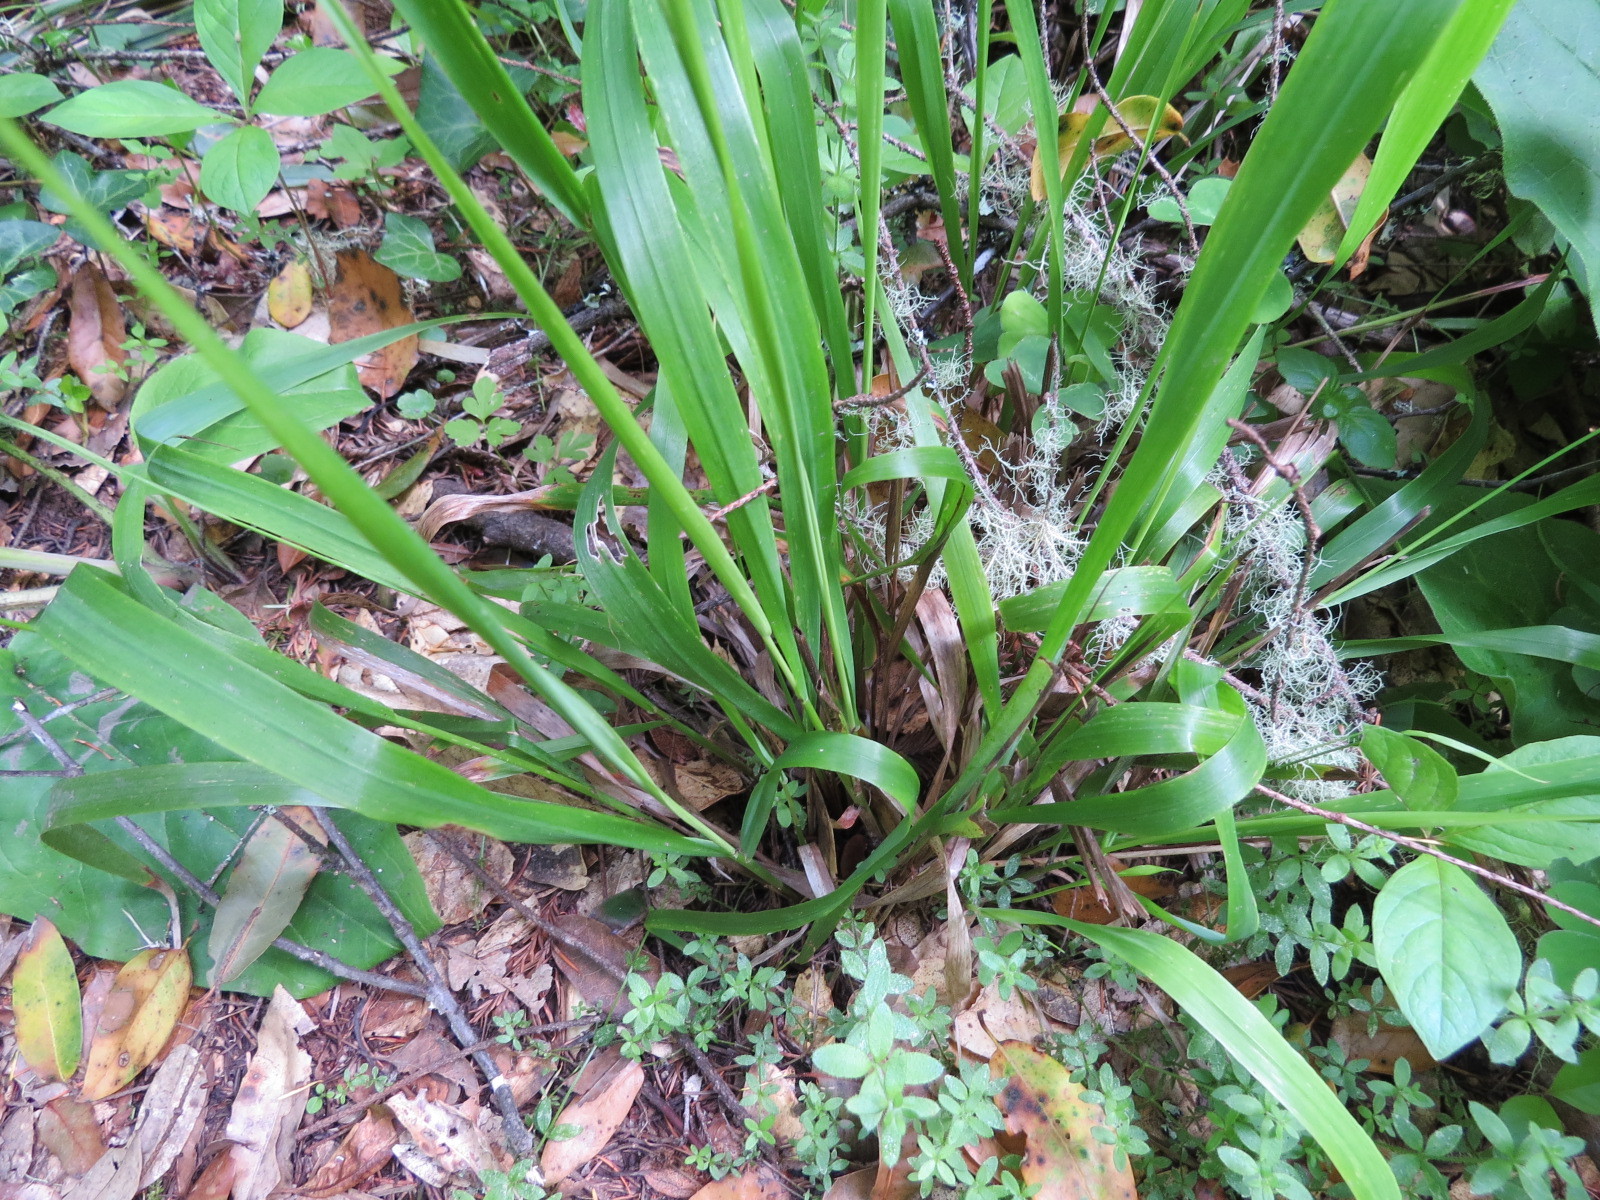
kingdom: Plantae
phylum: Tracheophyta
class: Liliopsida
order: Poales
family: Poaceae
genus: Anthoxanthum
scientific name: Anthoxanthum occidentale
